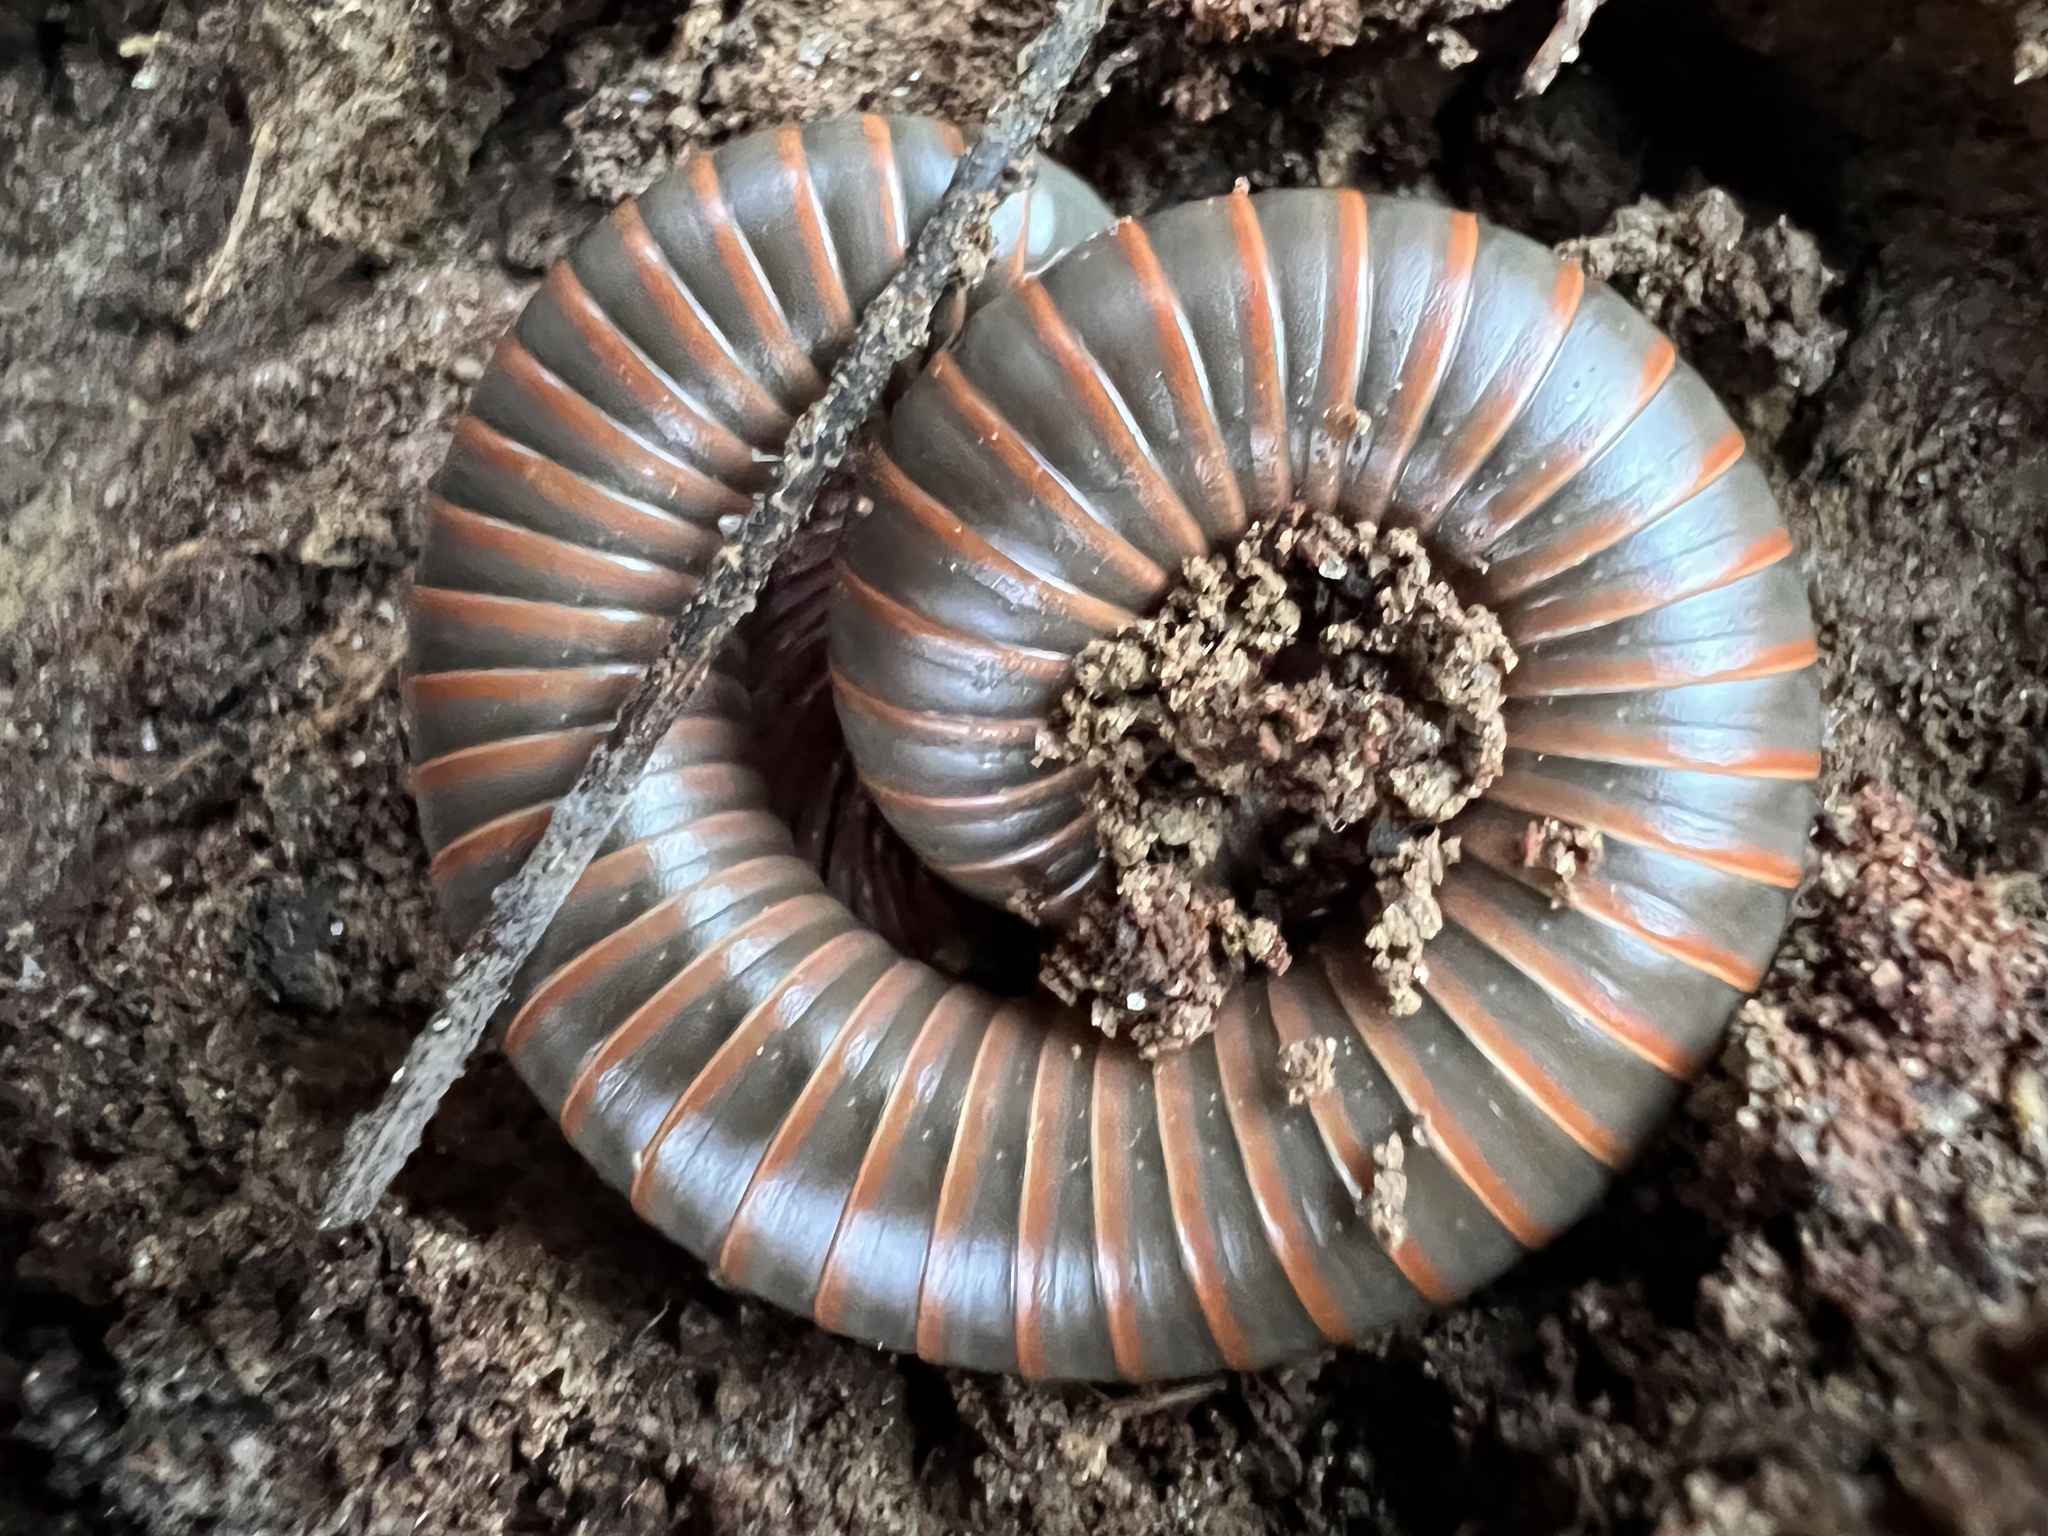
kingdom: Animalia
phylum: Arthropoda
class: Diplopoda
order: Spirobolida
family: Spirobolidae
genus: Narceus
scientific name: Narceus
